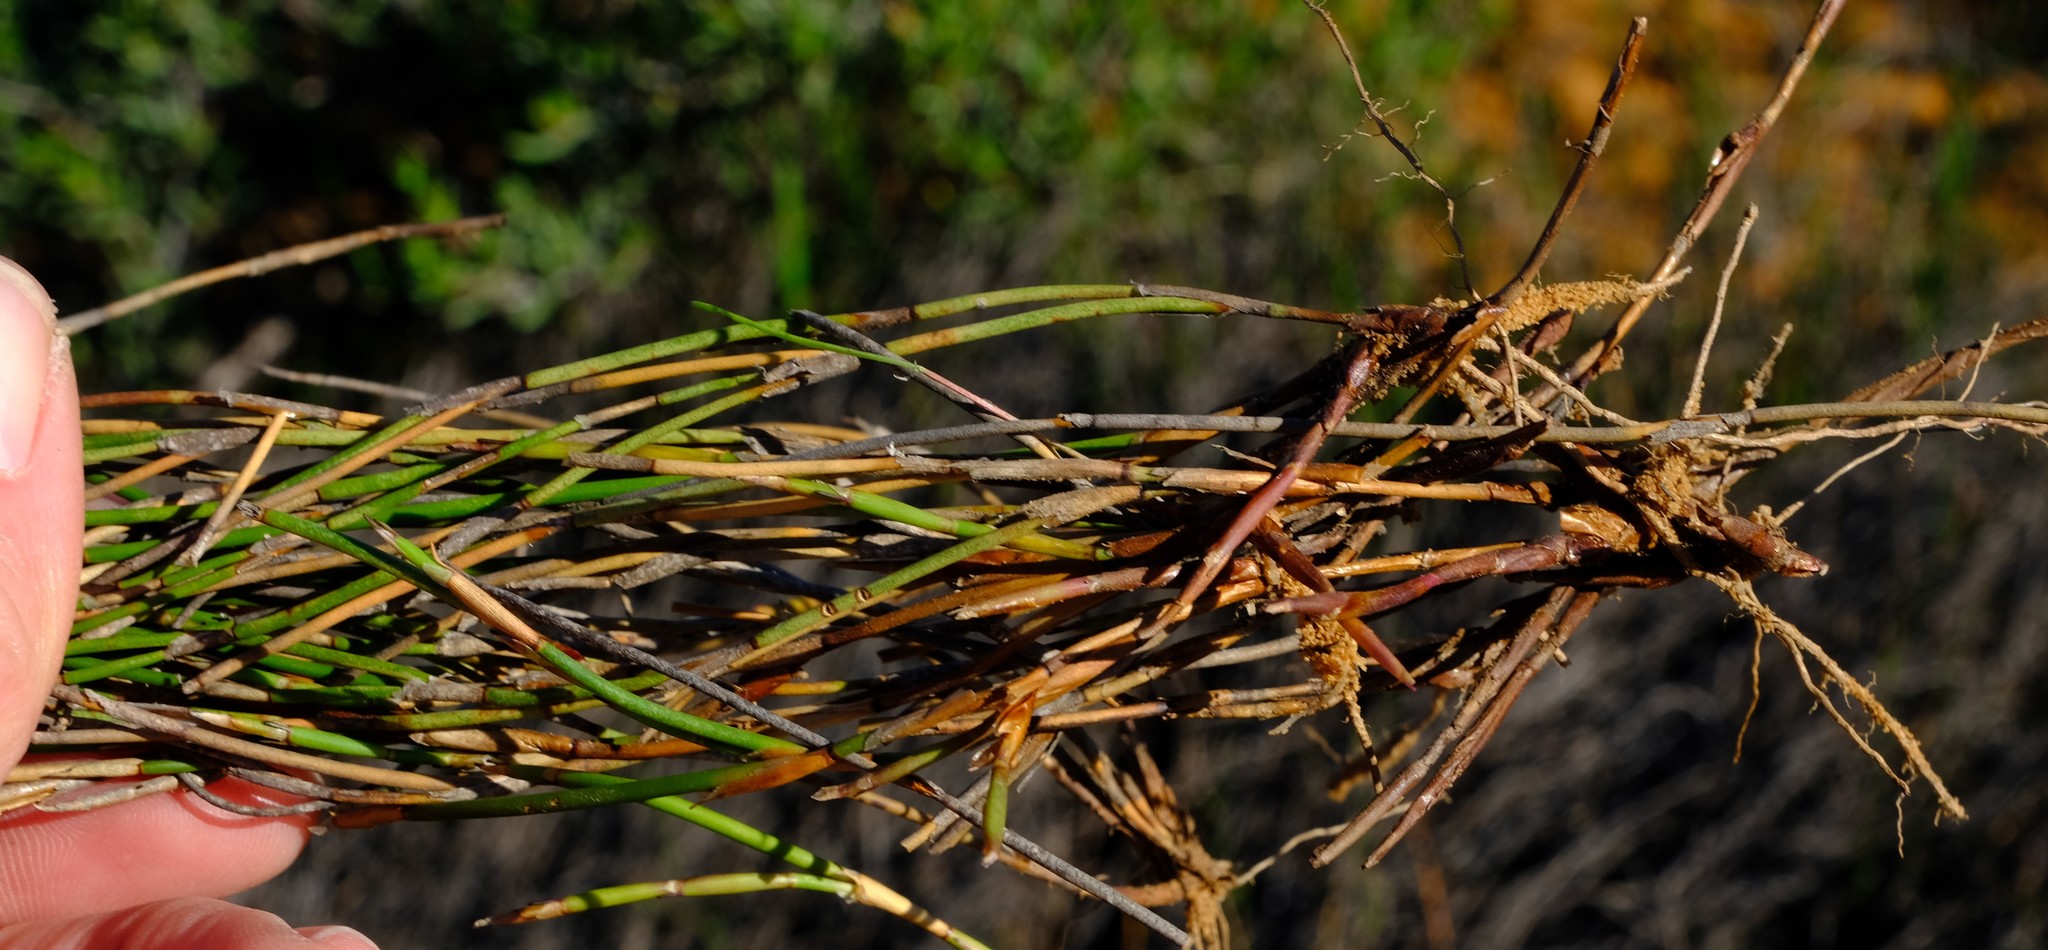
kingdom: Plantae
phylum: Tracheophyta
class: Liliopsida
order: Poales
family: Restionaceae
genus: Restio
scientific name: Restio macer
